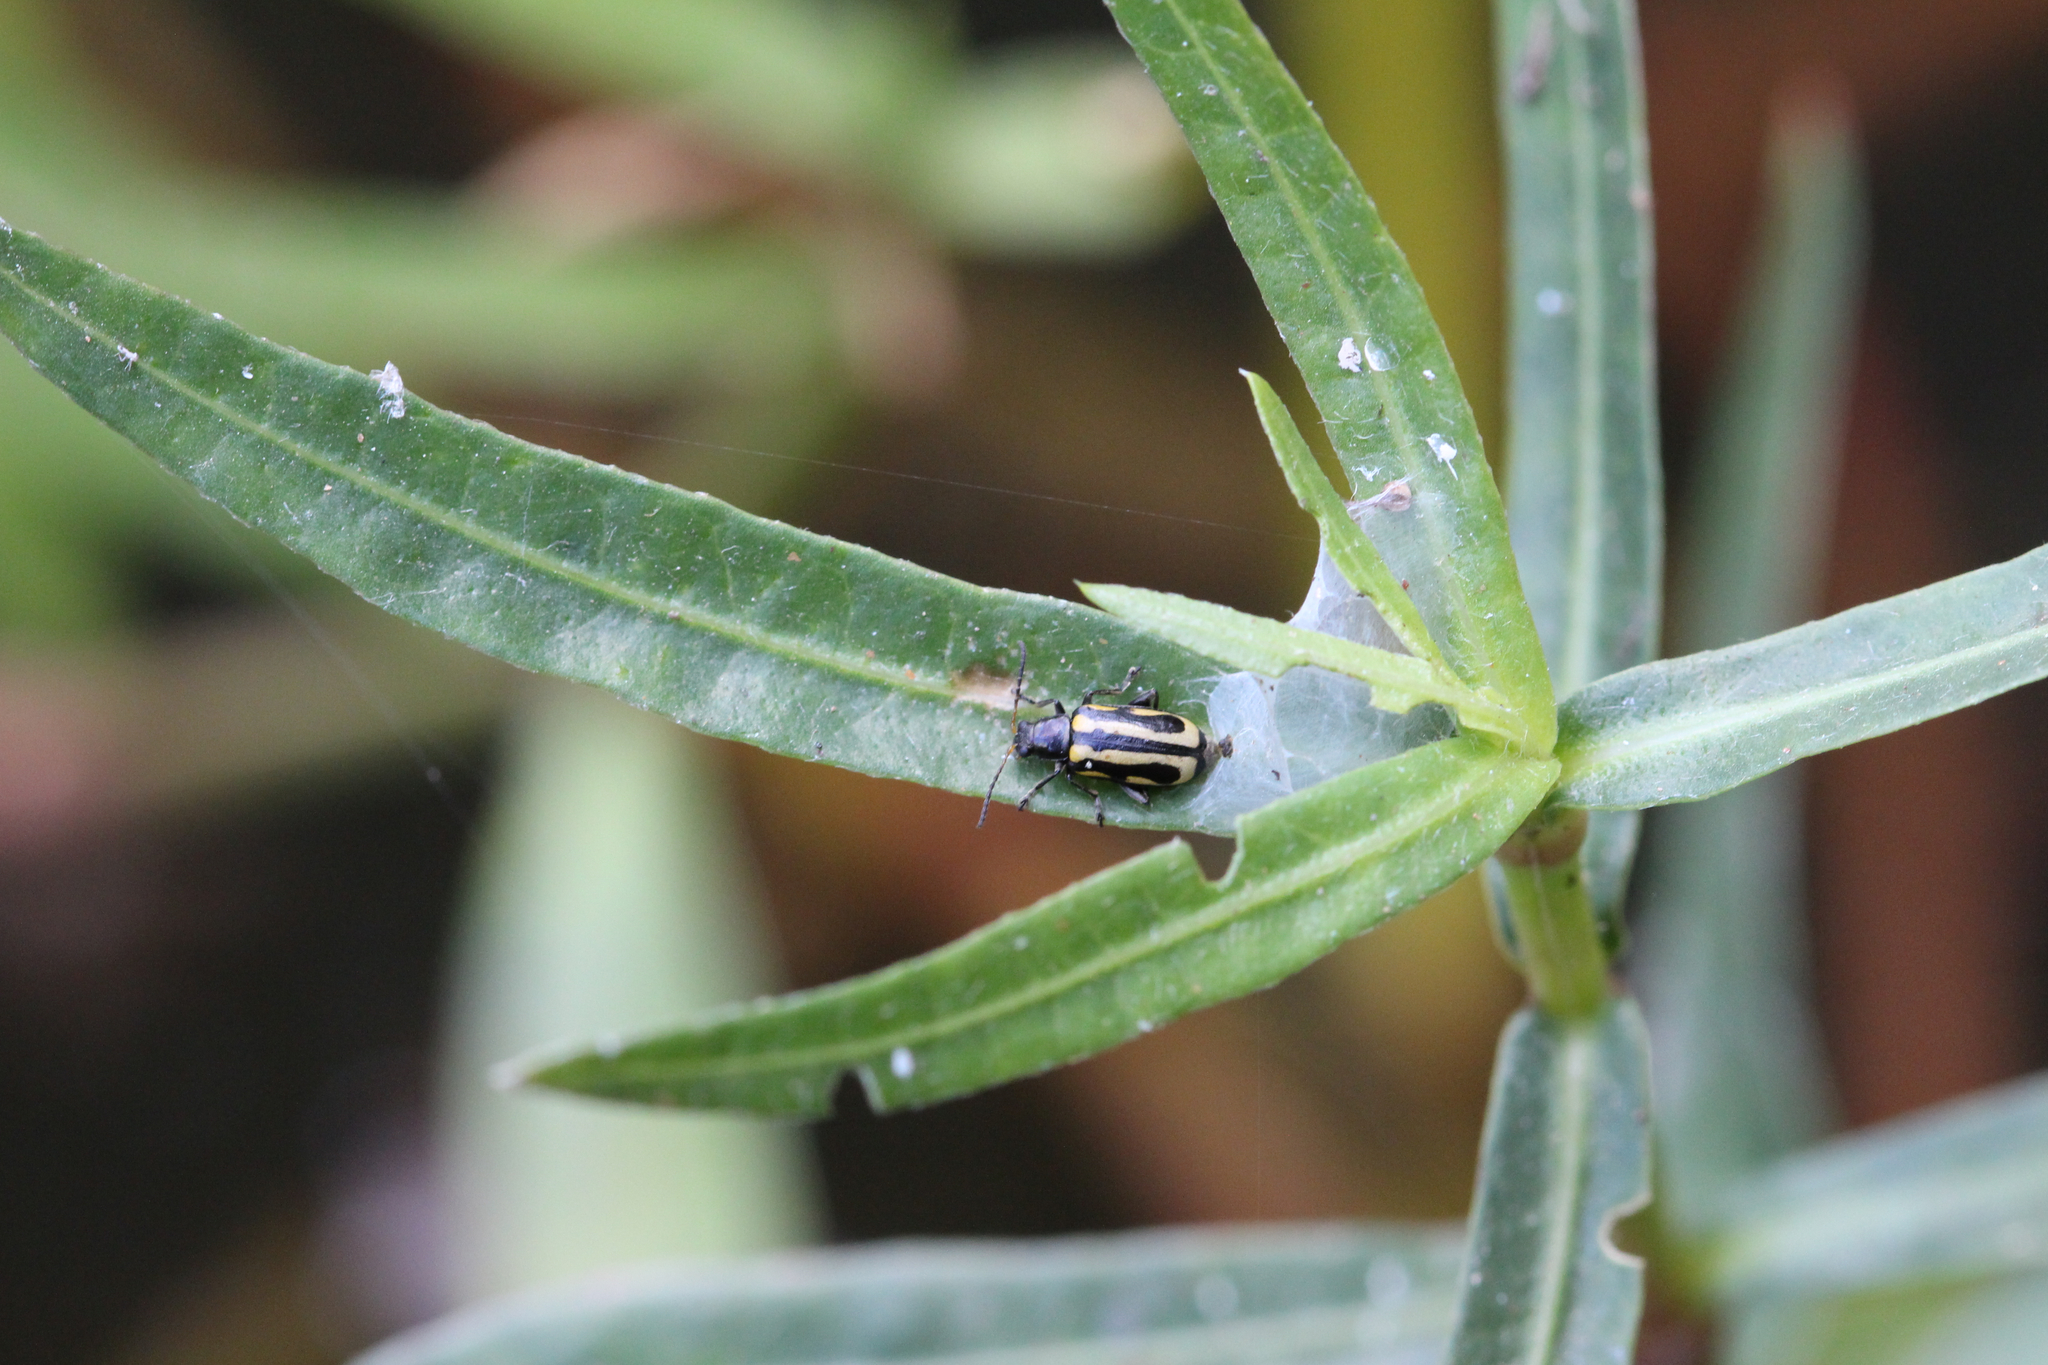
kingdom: Animalia
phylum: Arthropoda
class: Insecta
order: Coleoptera
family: Chrysomelidae
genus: Agasicles
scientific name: Agasicles hygrophila
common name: Alligatorweed flea beetle
